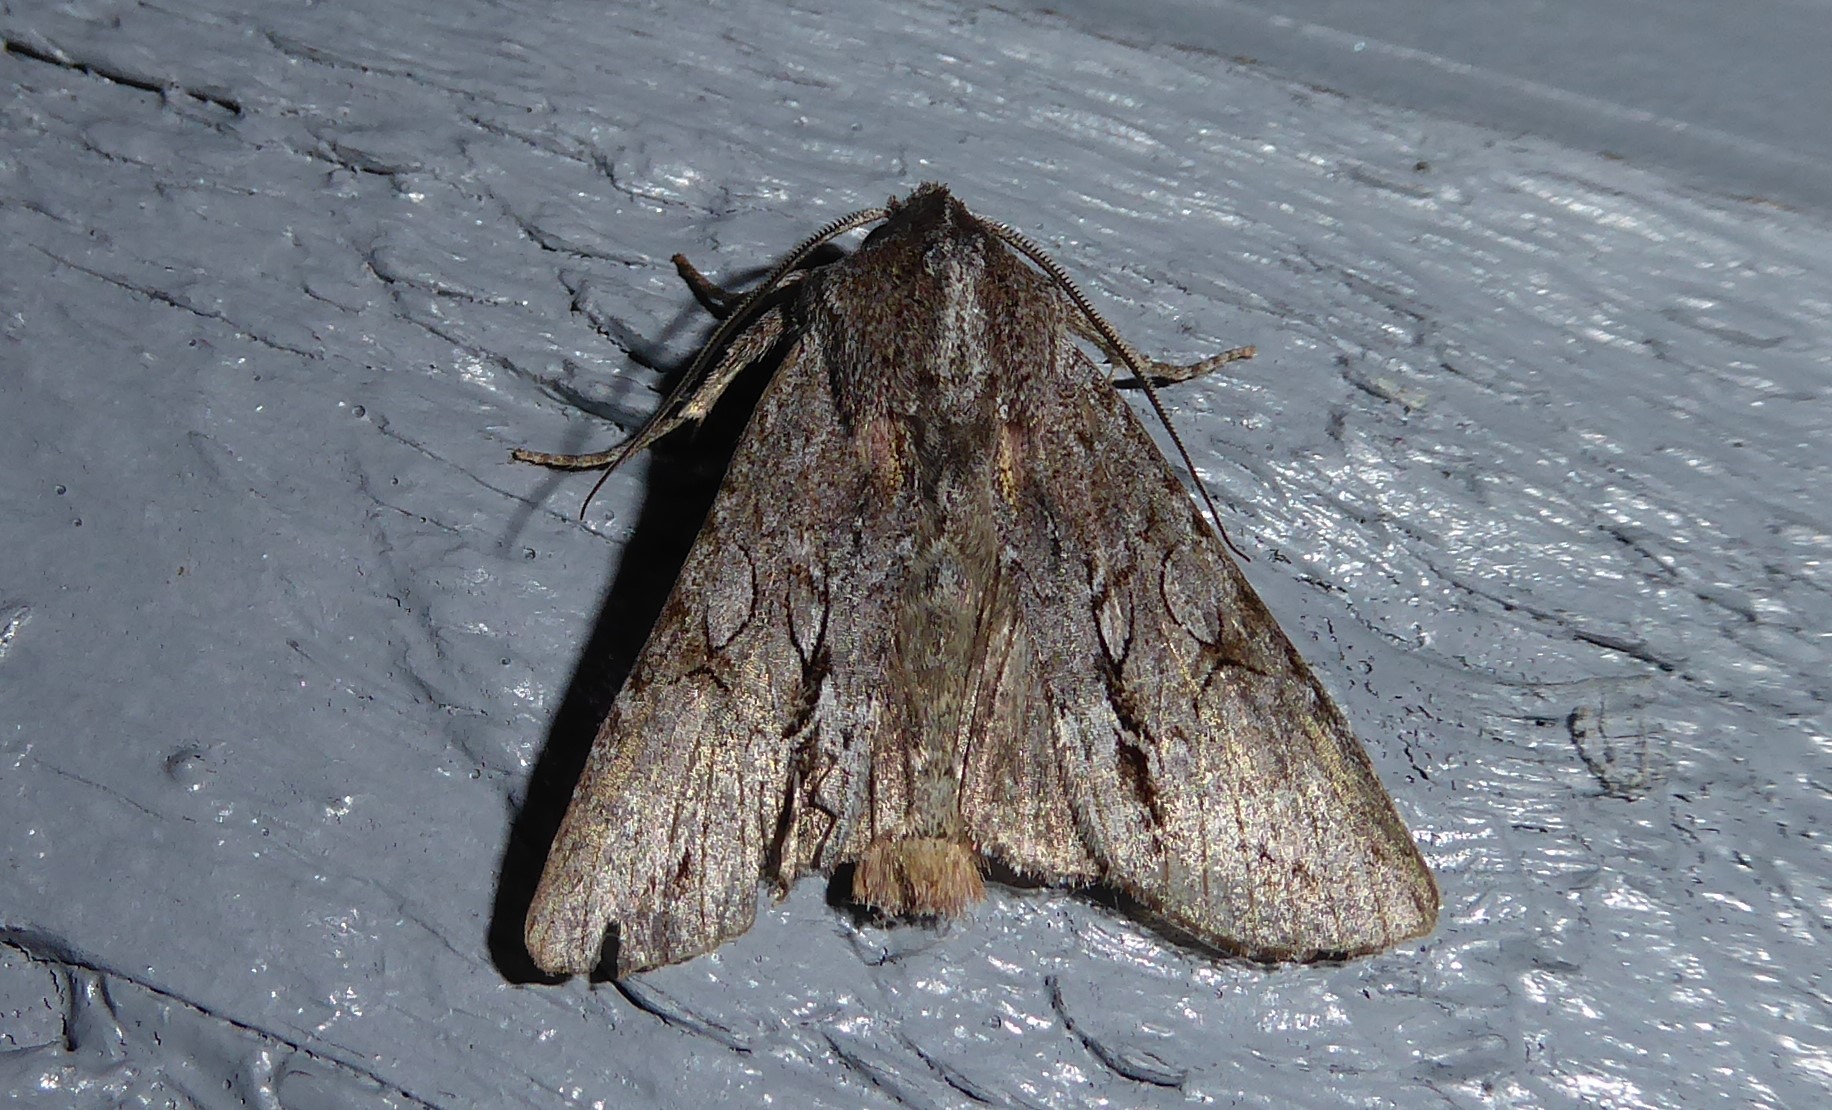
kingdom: Animalia
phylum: Arthropoda
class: Insecta
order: Lepidoptera
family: Noctuidae
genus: Ichneutica
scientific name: Ichneutica
